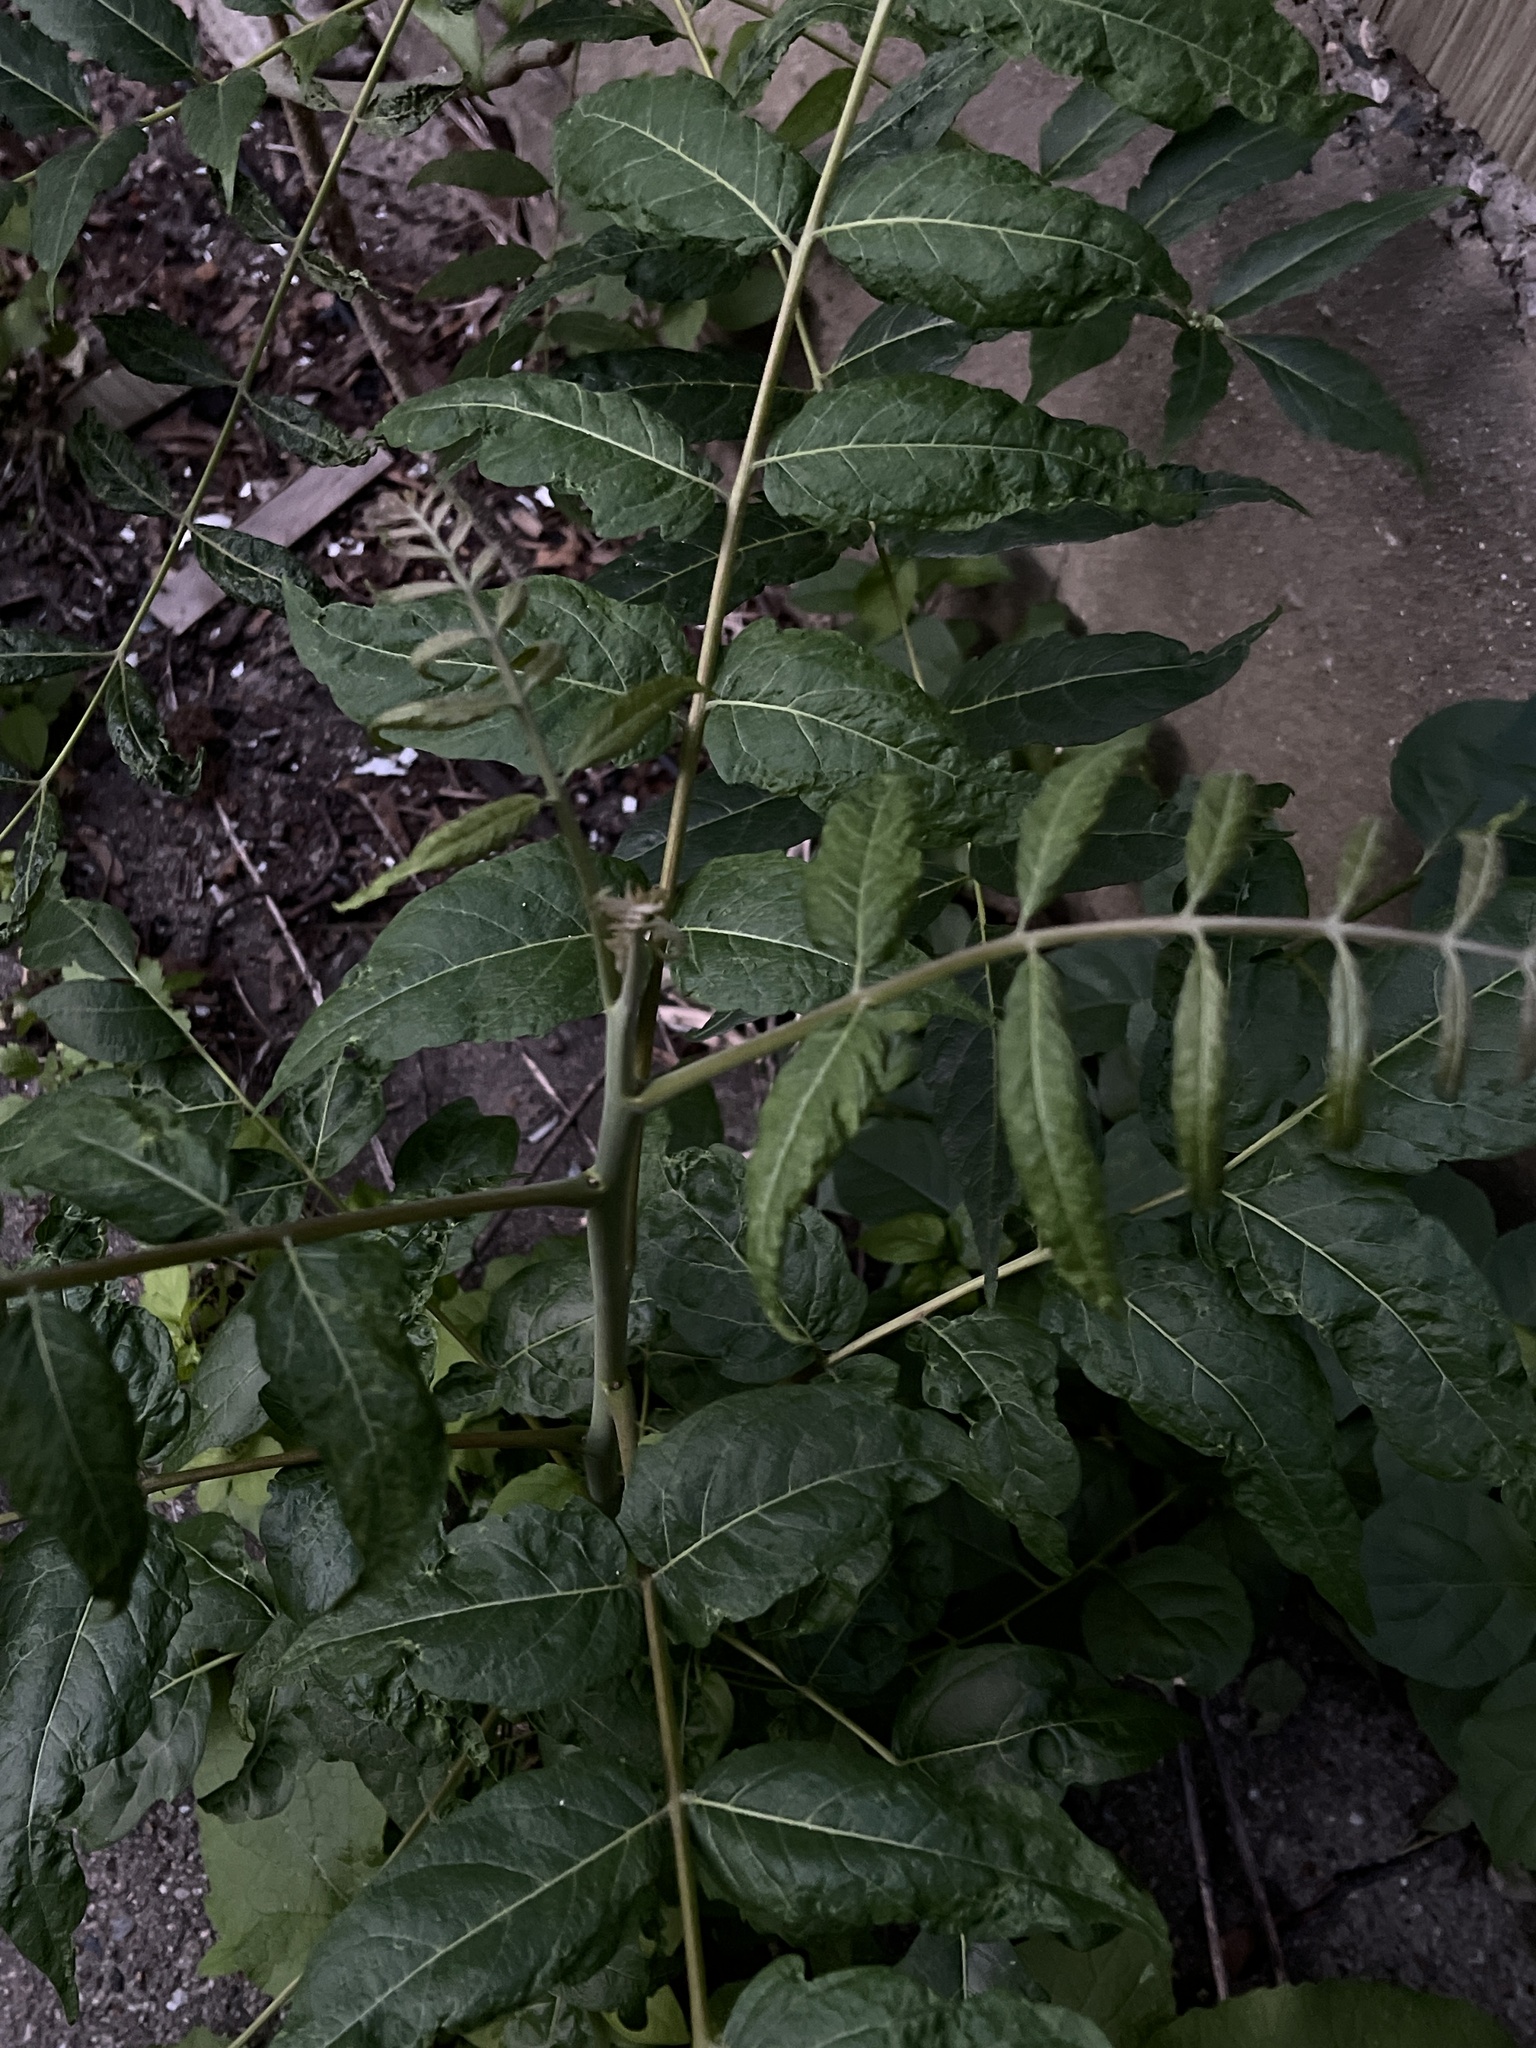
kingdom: Plantae
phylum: Tracheophyta
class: Magnoliopsida
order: Sapindales
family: Simaroubaceae
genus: Ailanthus
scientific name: Ailanthus altissima
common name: Tree-of-heaven
